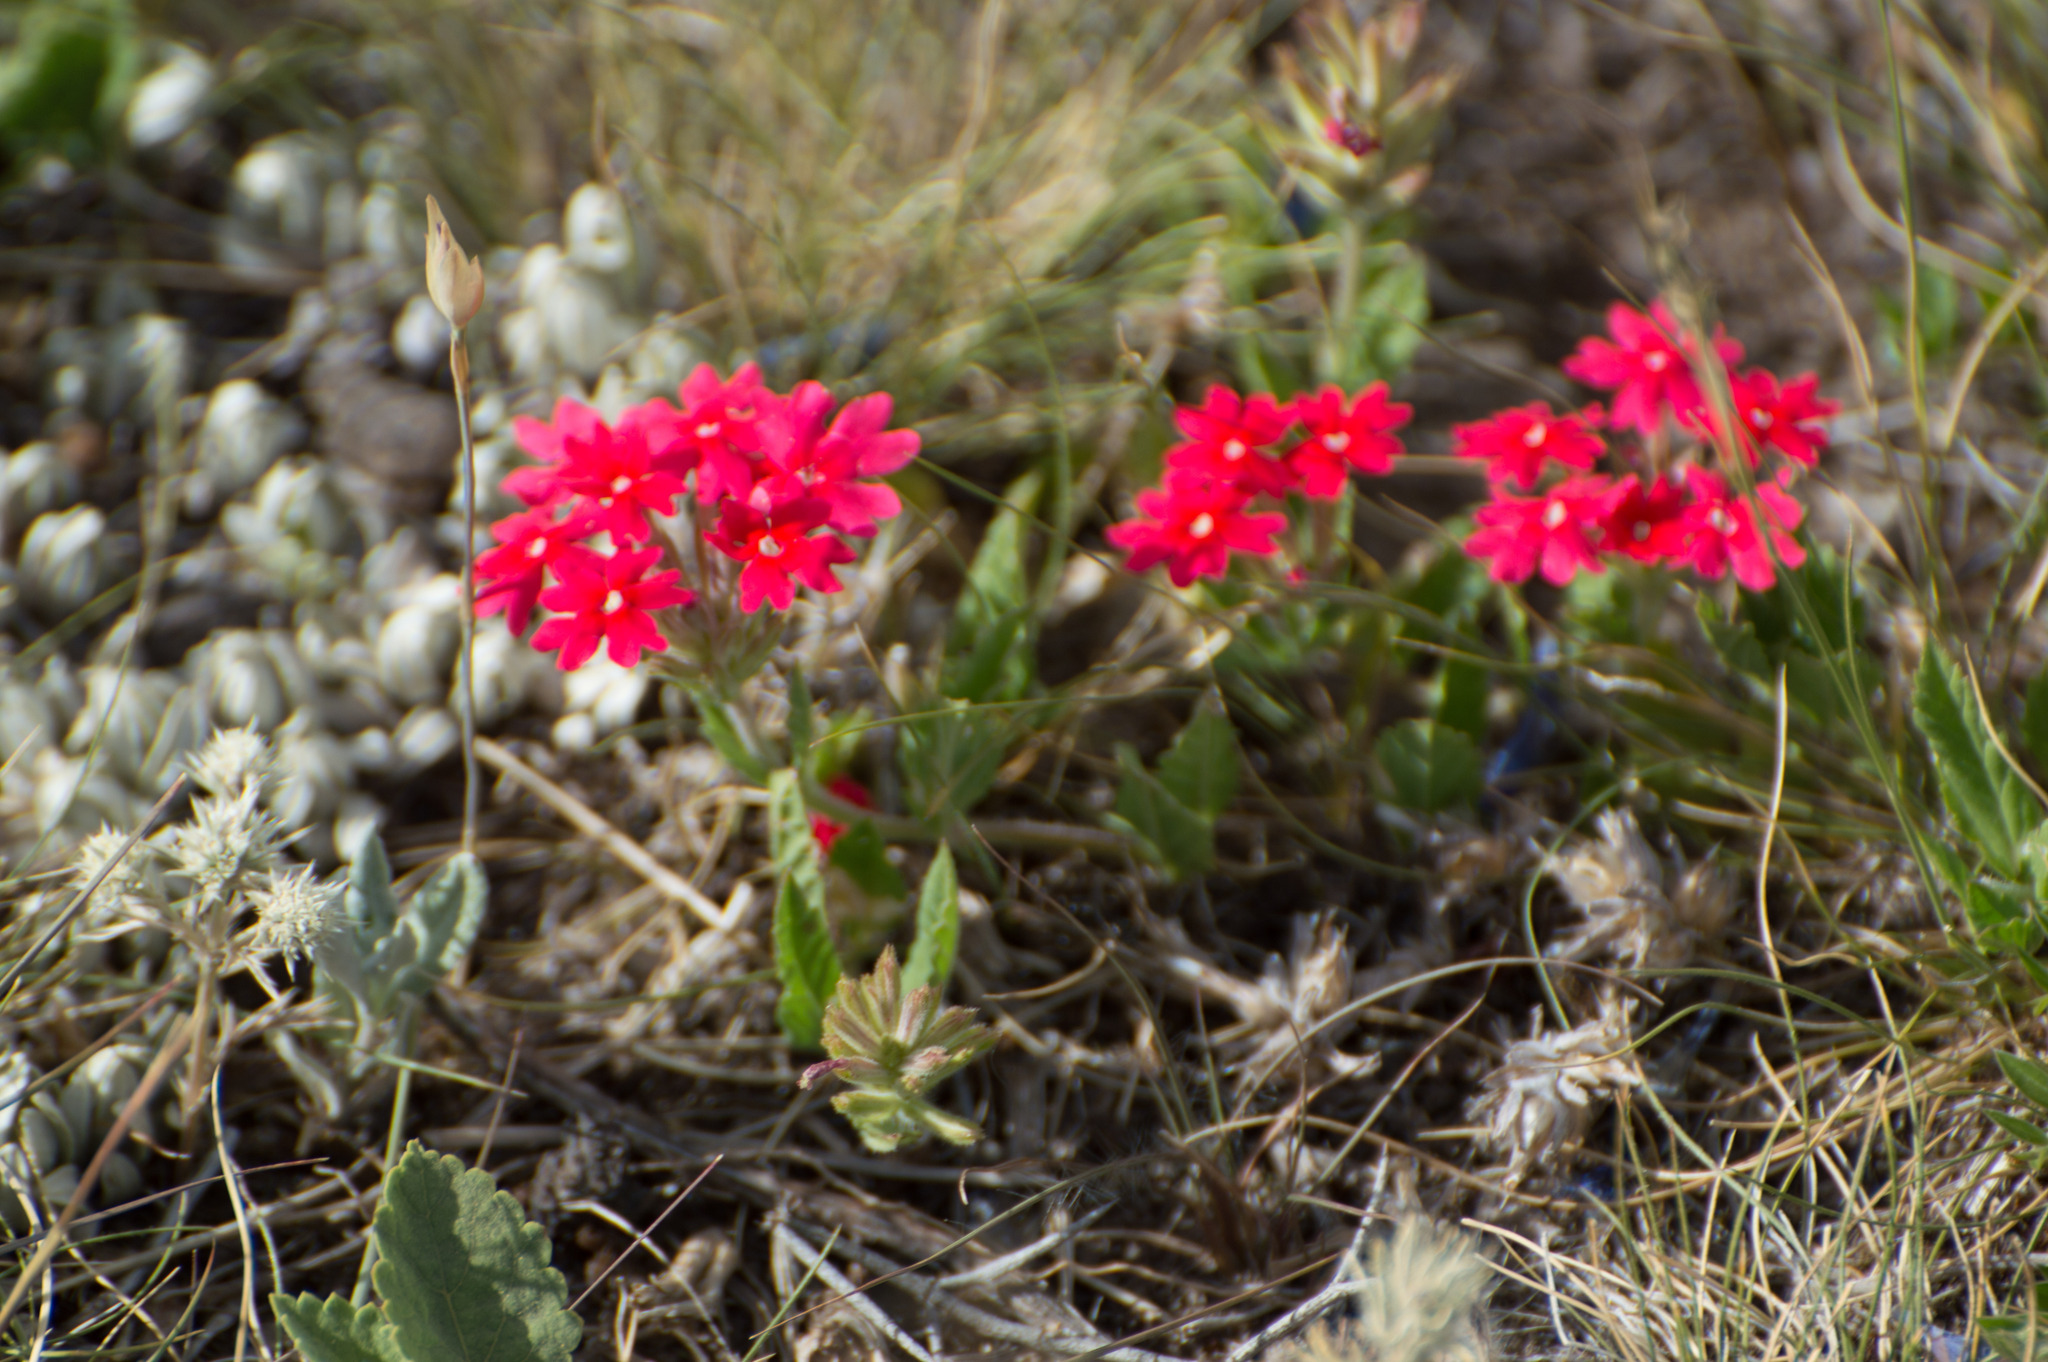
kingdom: Plantae
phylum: Tracheophyta
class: Magnoliopsida
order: Lamiales
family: Verbenaceae
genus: Verbena
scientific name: Verbena peruviana
